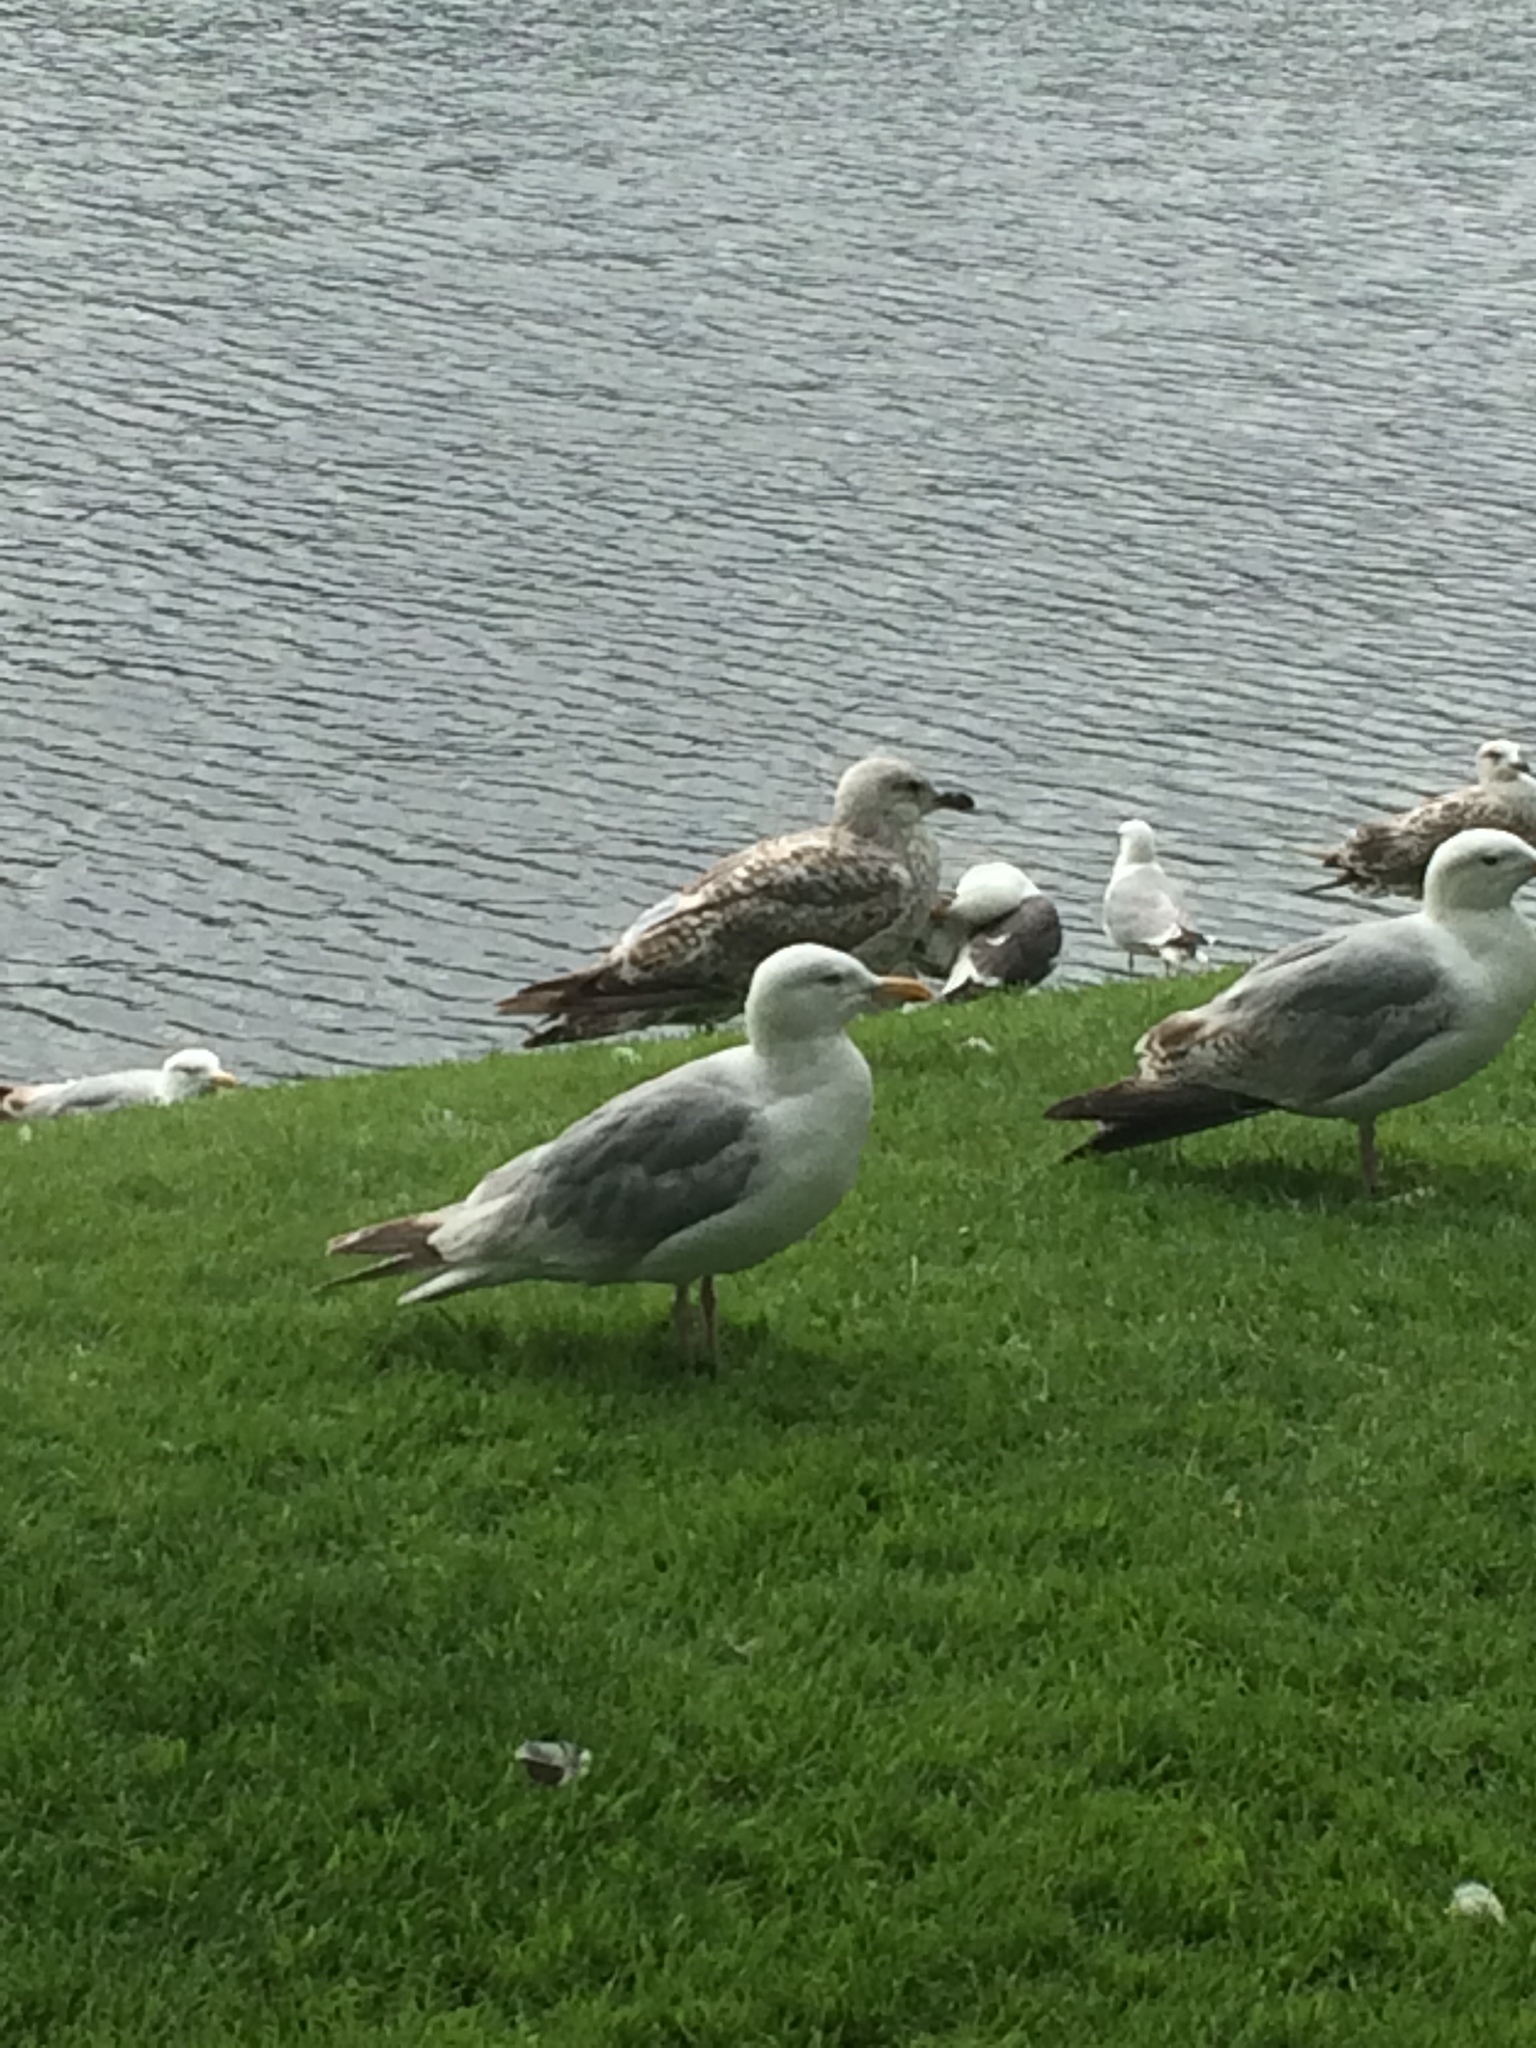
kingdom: Animalia
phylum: Chordata
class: Aves
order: Charadriiformes
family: Laridae
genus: Larus
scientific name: Larus argentatus
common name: Herring gull
